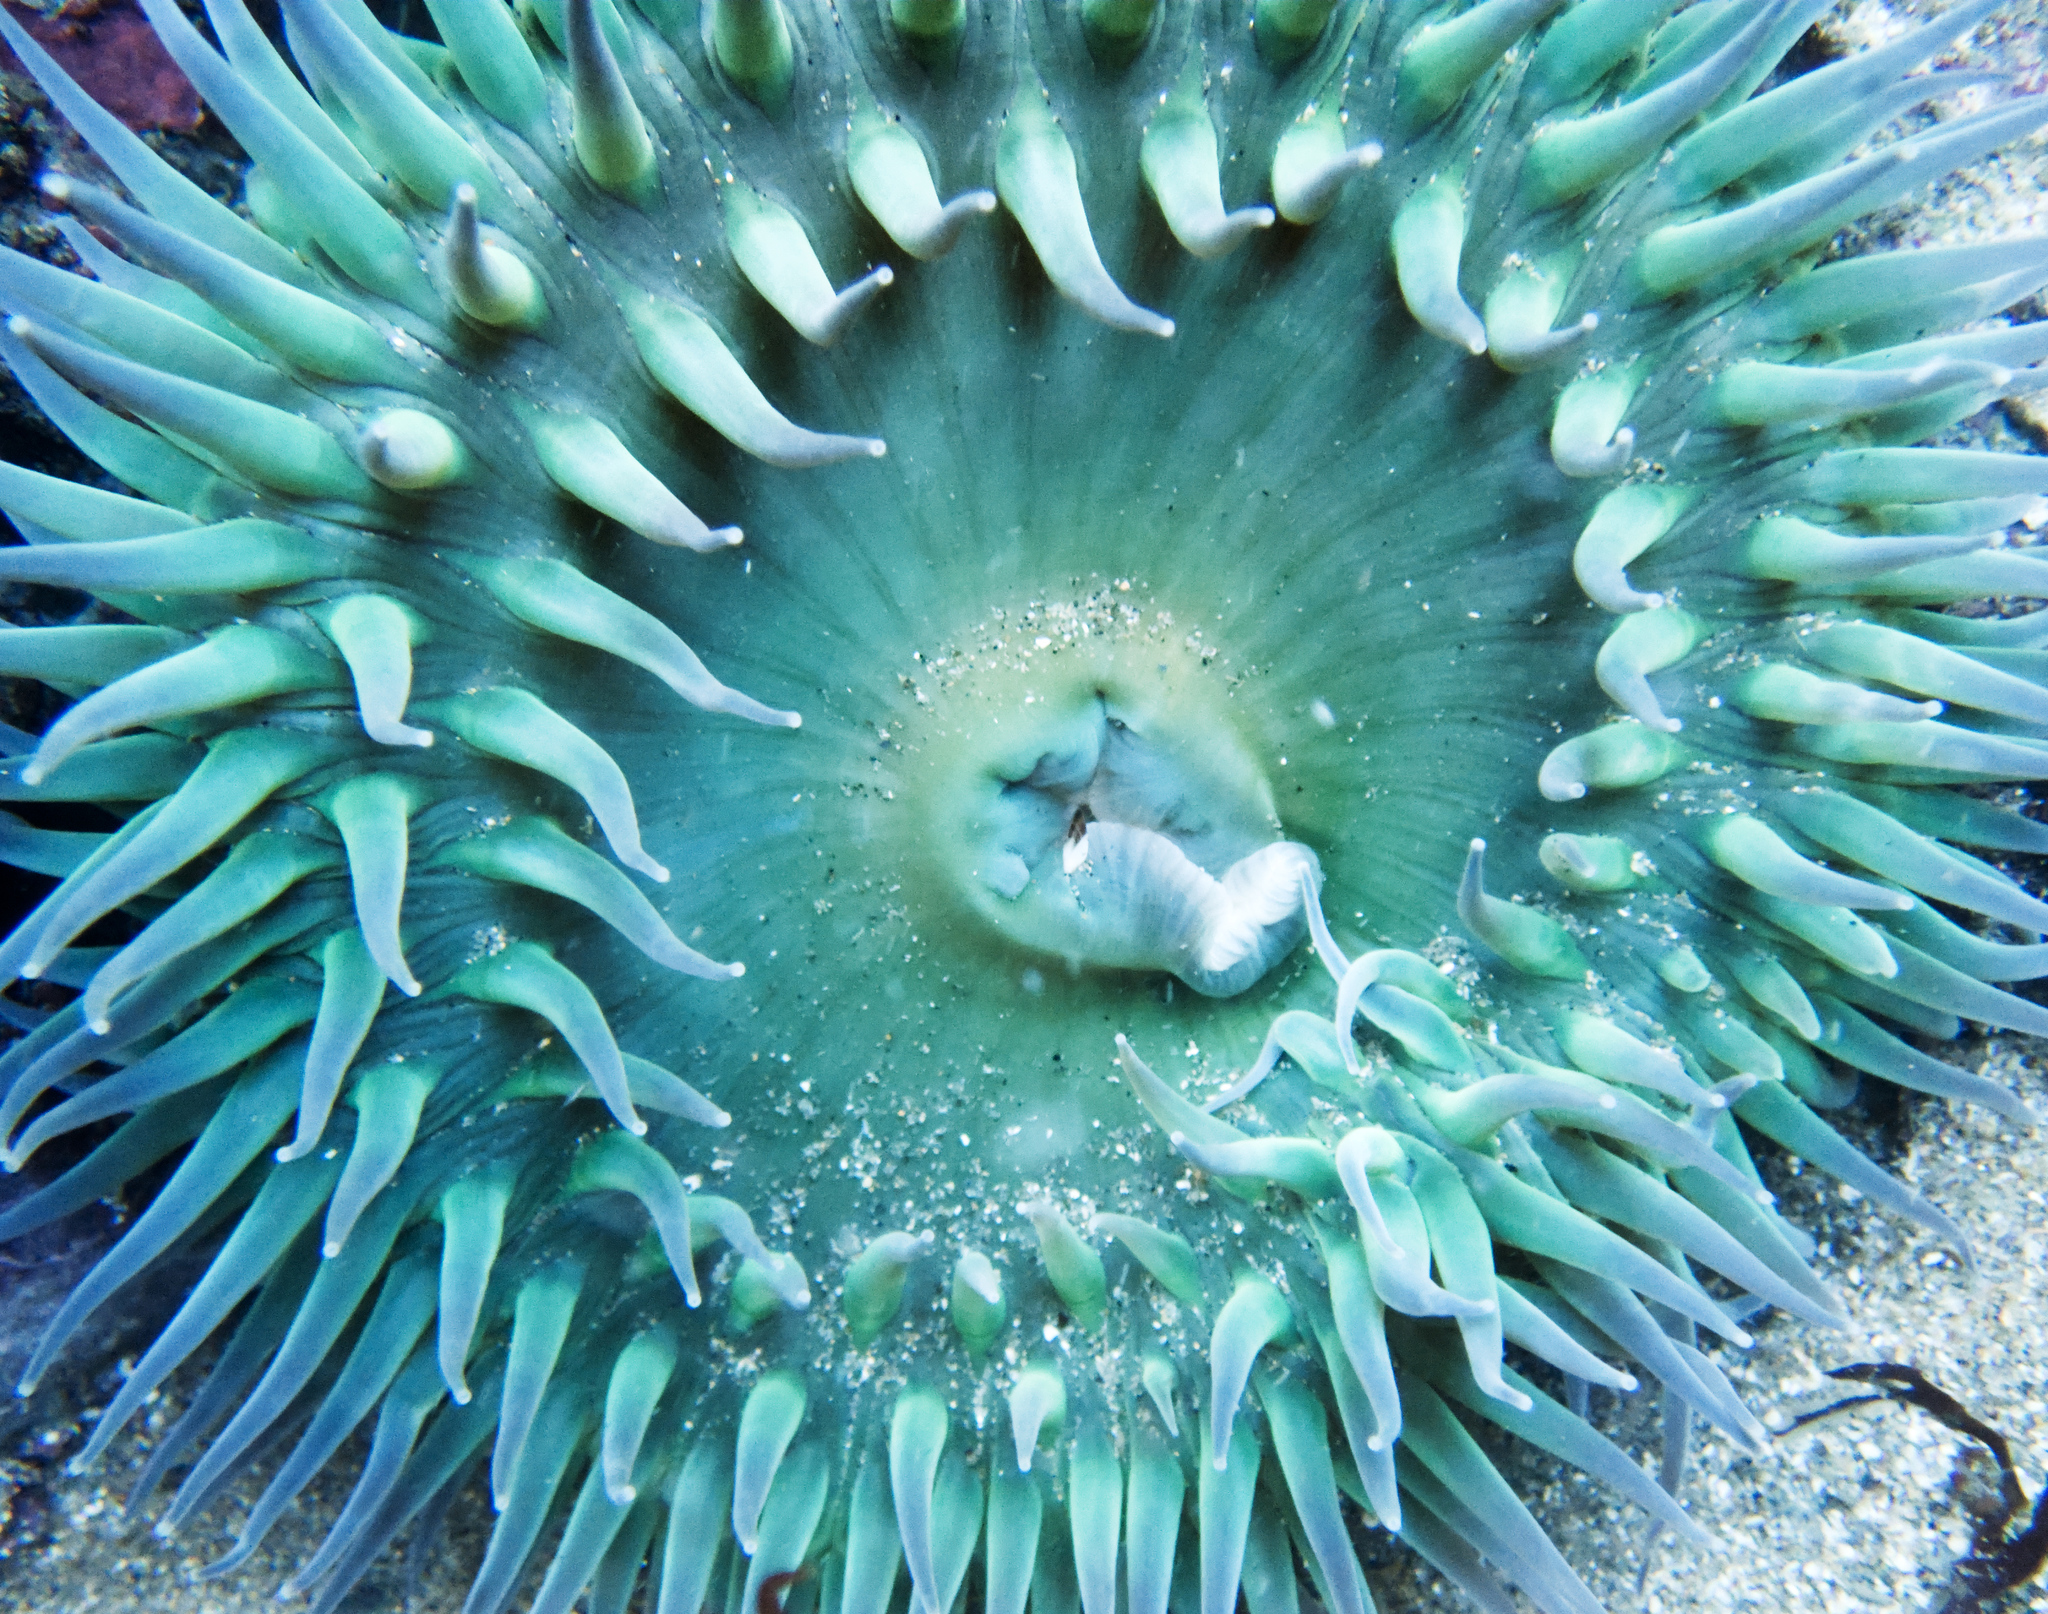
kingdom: Animalia
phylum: Cnidaria
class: Anthozoa
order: Actiniaria
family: Actiniidae
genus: Anthopleura
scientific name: Anthopleura xanthogrammica
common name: Giant green anemone
